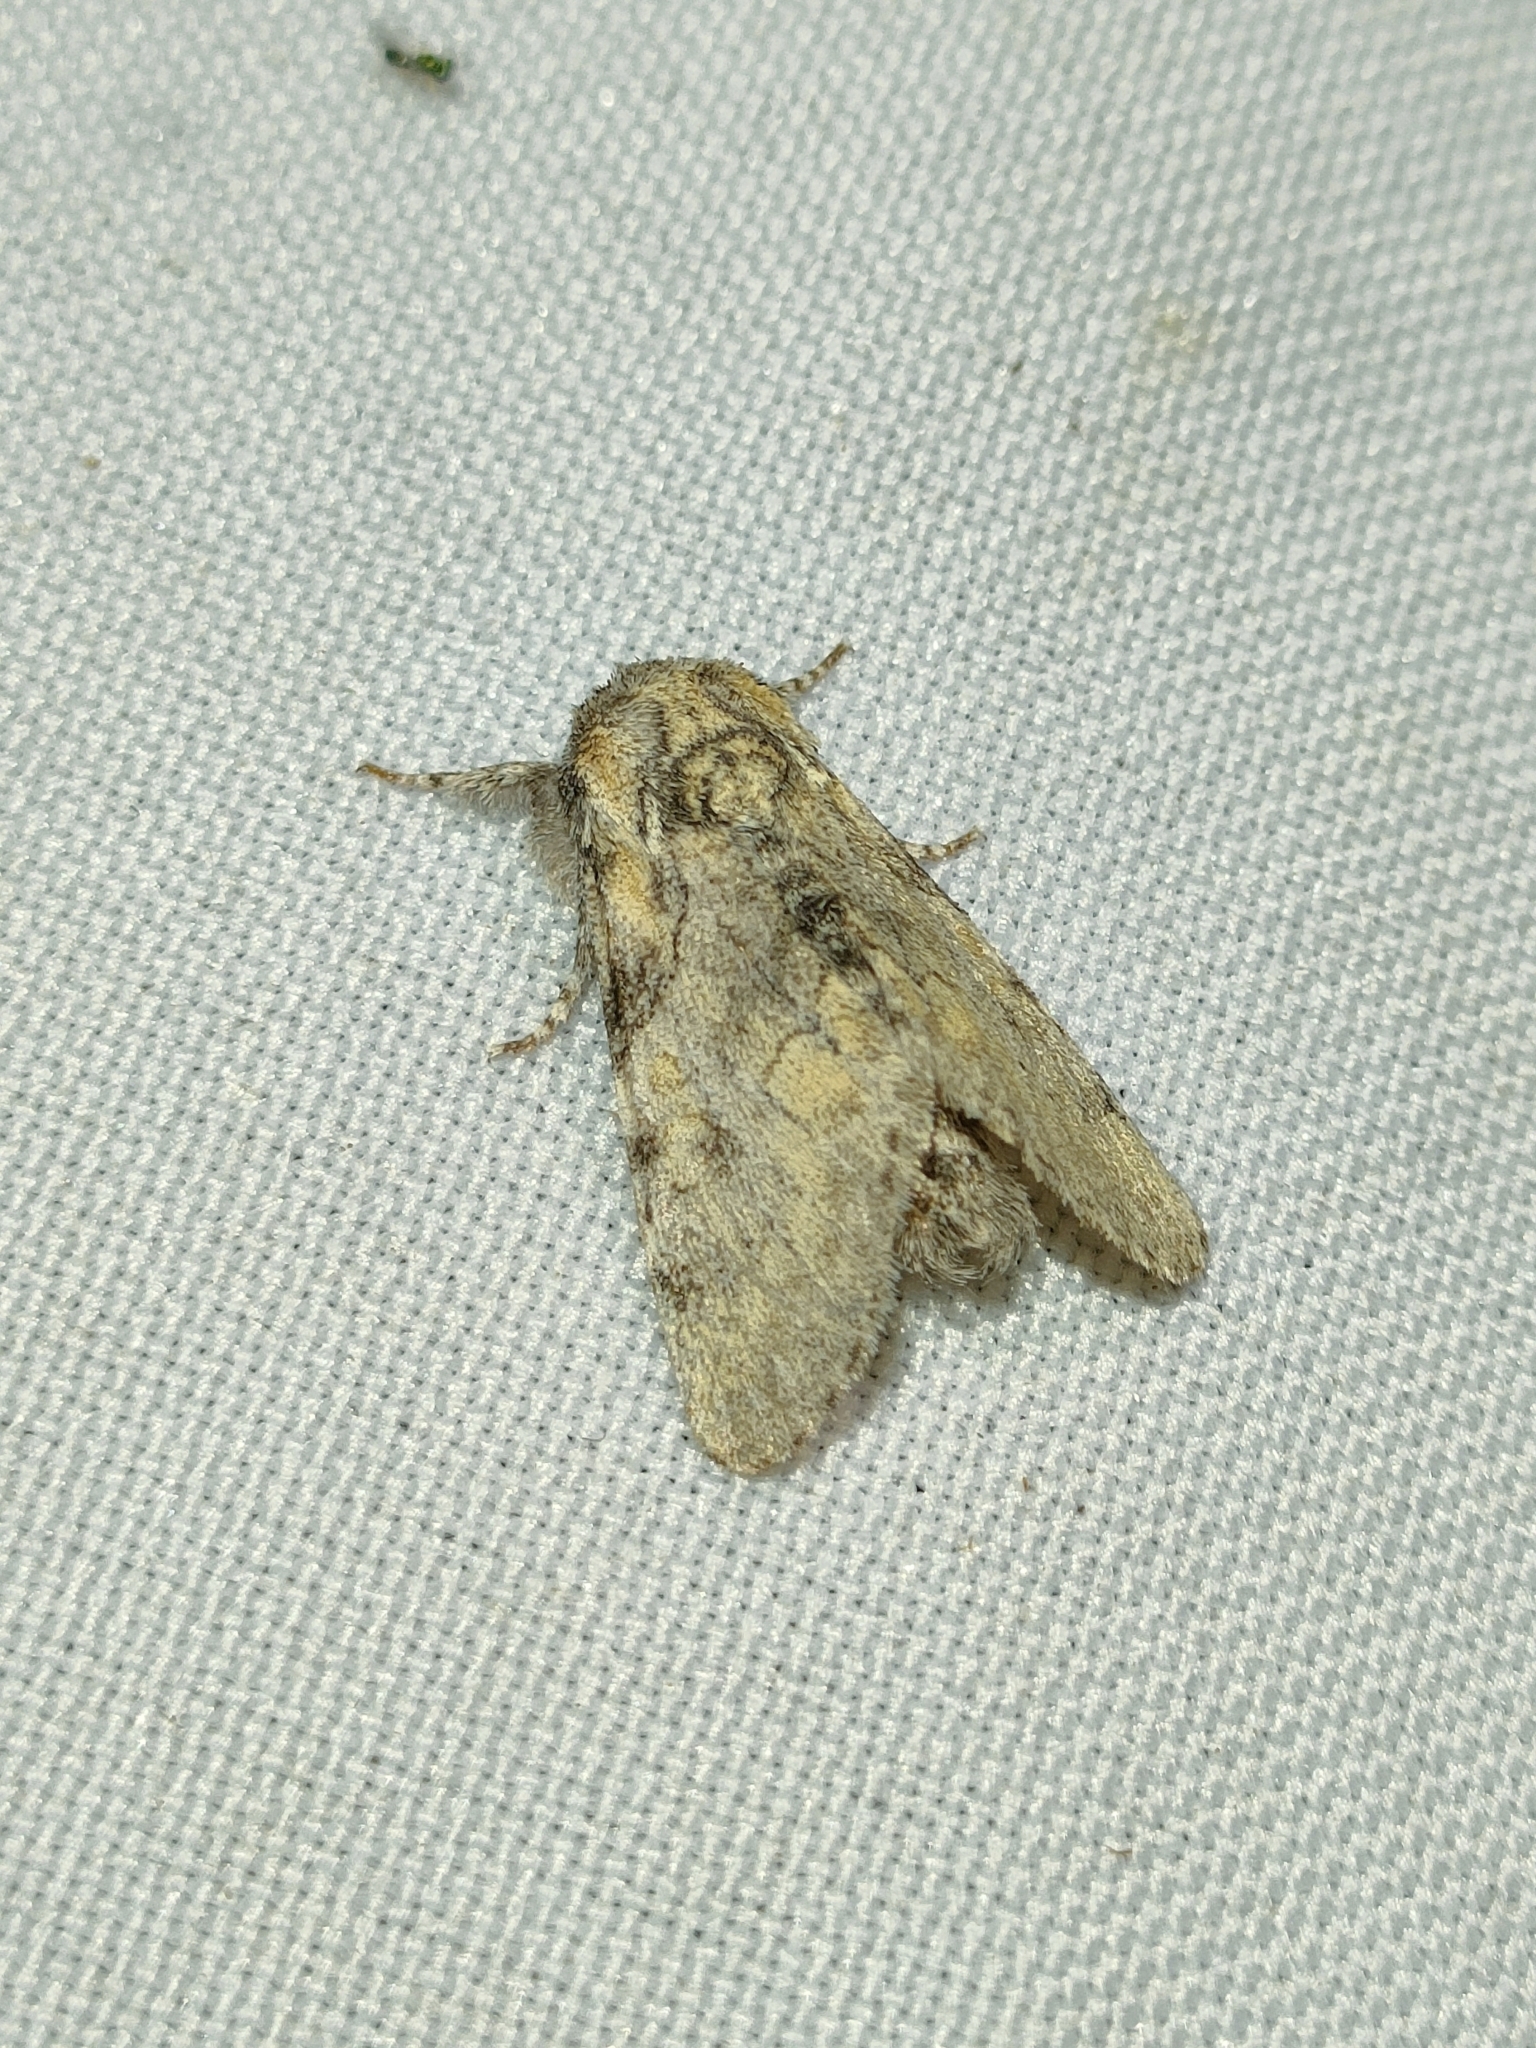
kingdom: Animalia
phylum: Arthropoda
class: Insecta
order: Lepidoptera
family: Noctuidae
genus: Raphia
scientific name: Raphia hybris
